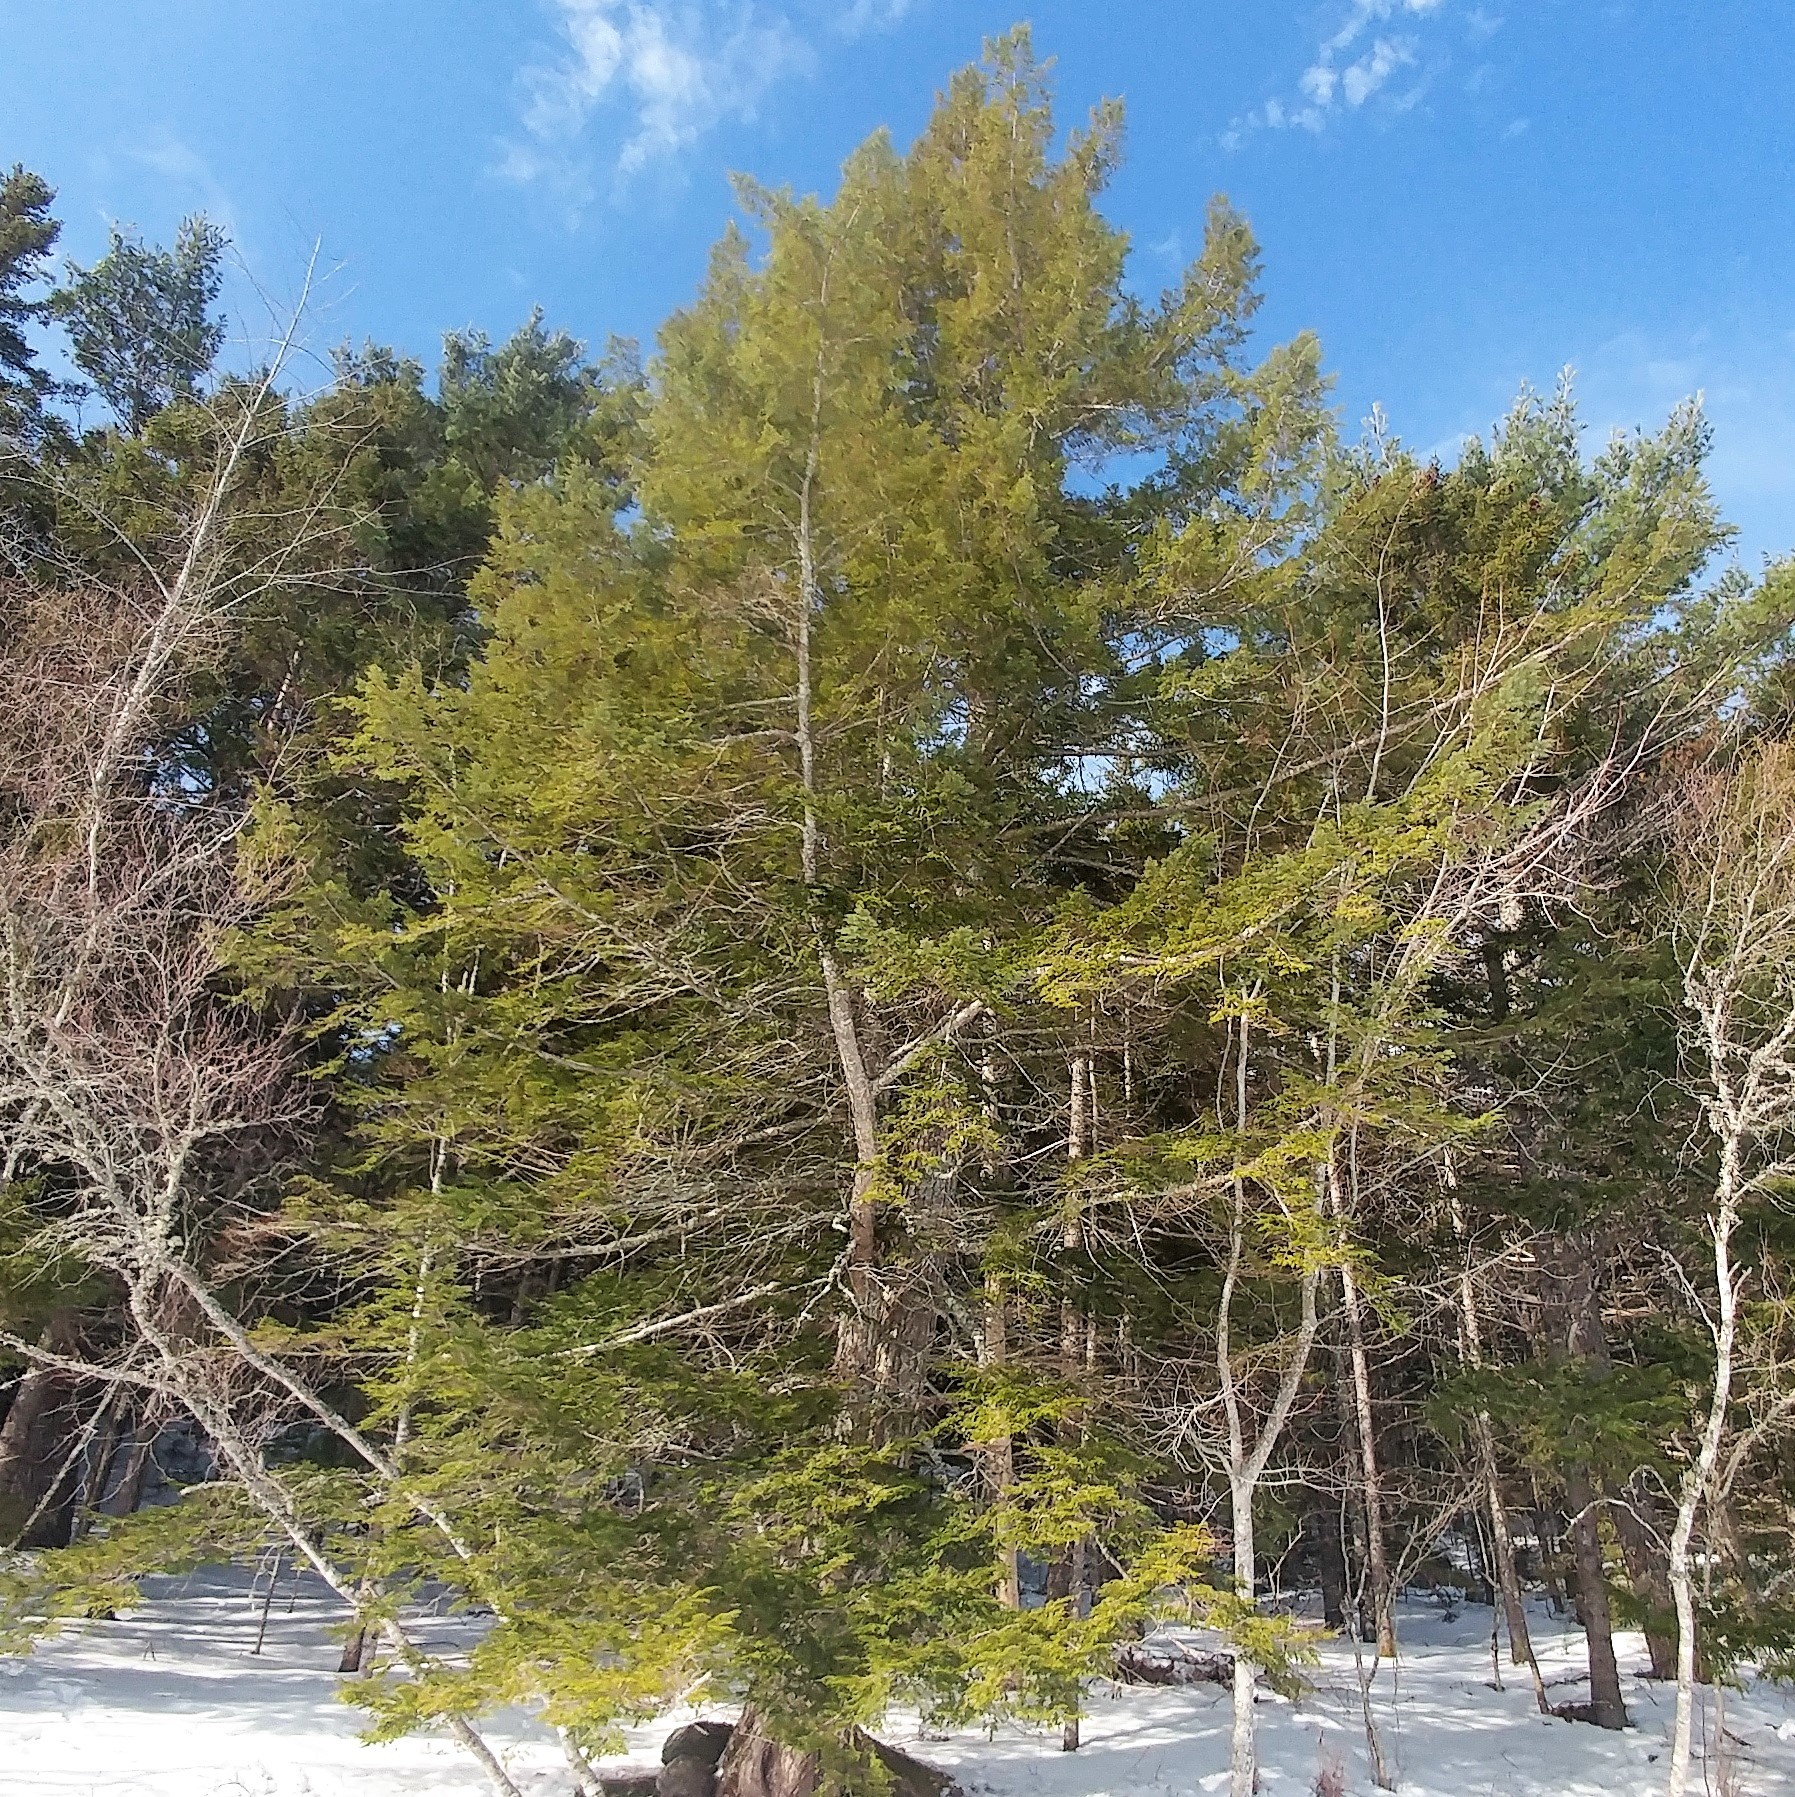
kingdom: Plantae
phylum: Tracheophyta
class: Pinopsida
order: Pinales
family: Pinaceae
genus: Tsuga
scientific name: Tsuga canadensis
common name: Eastern hemlock
